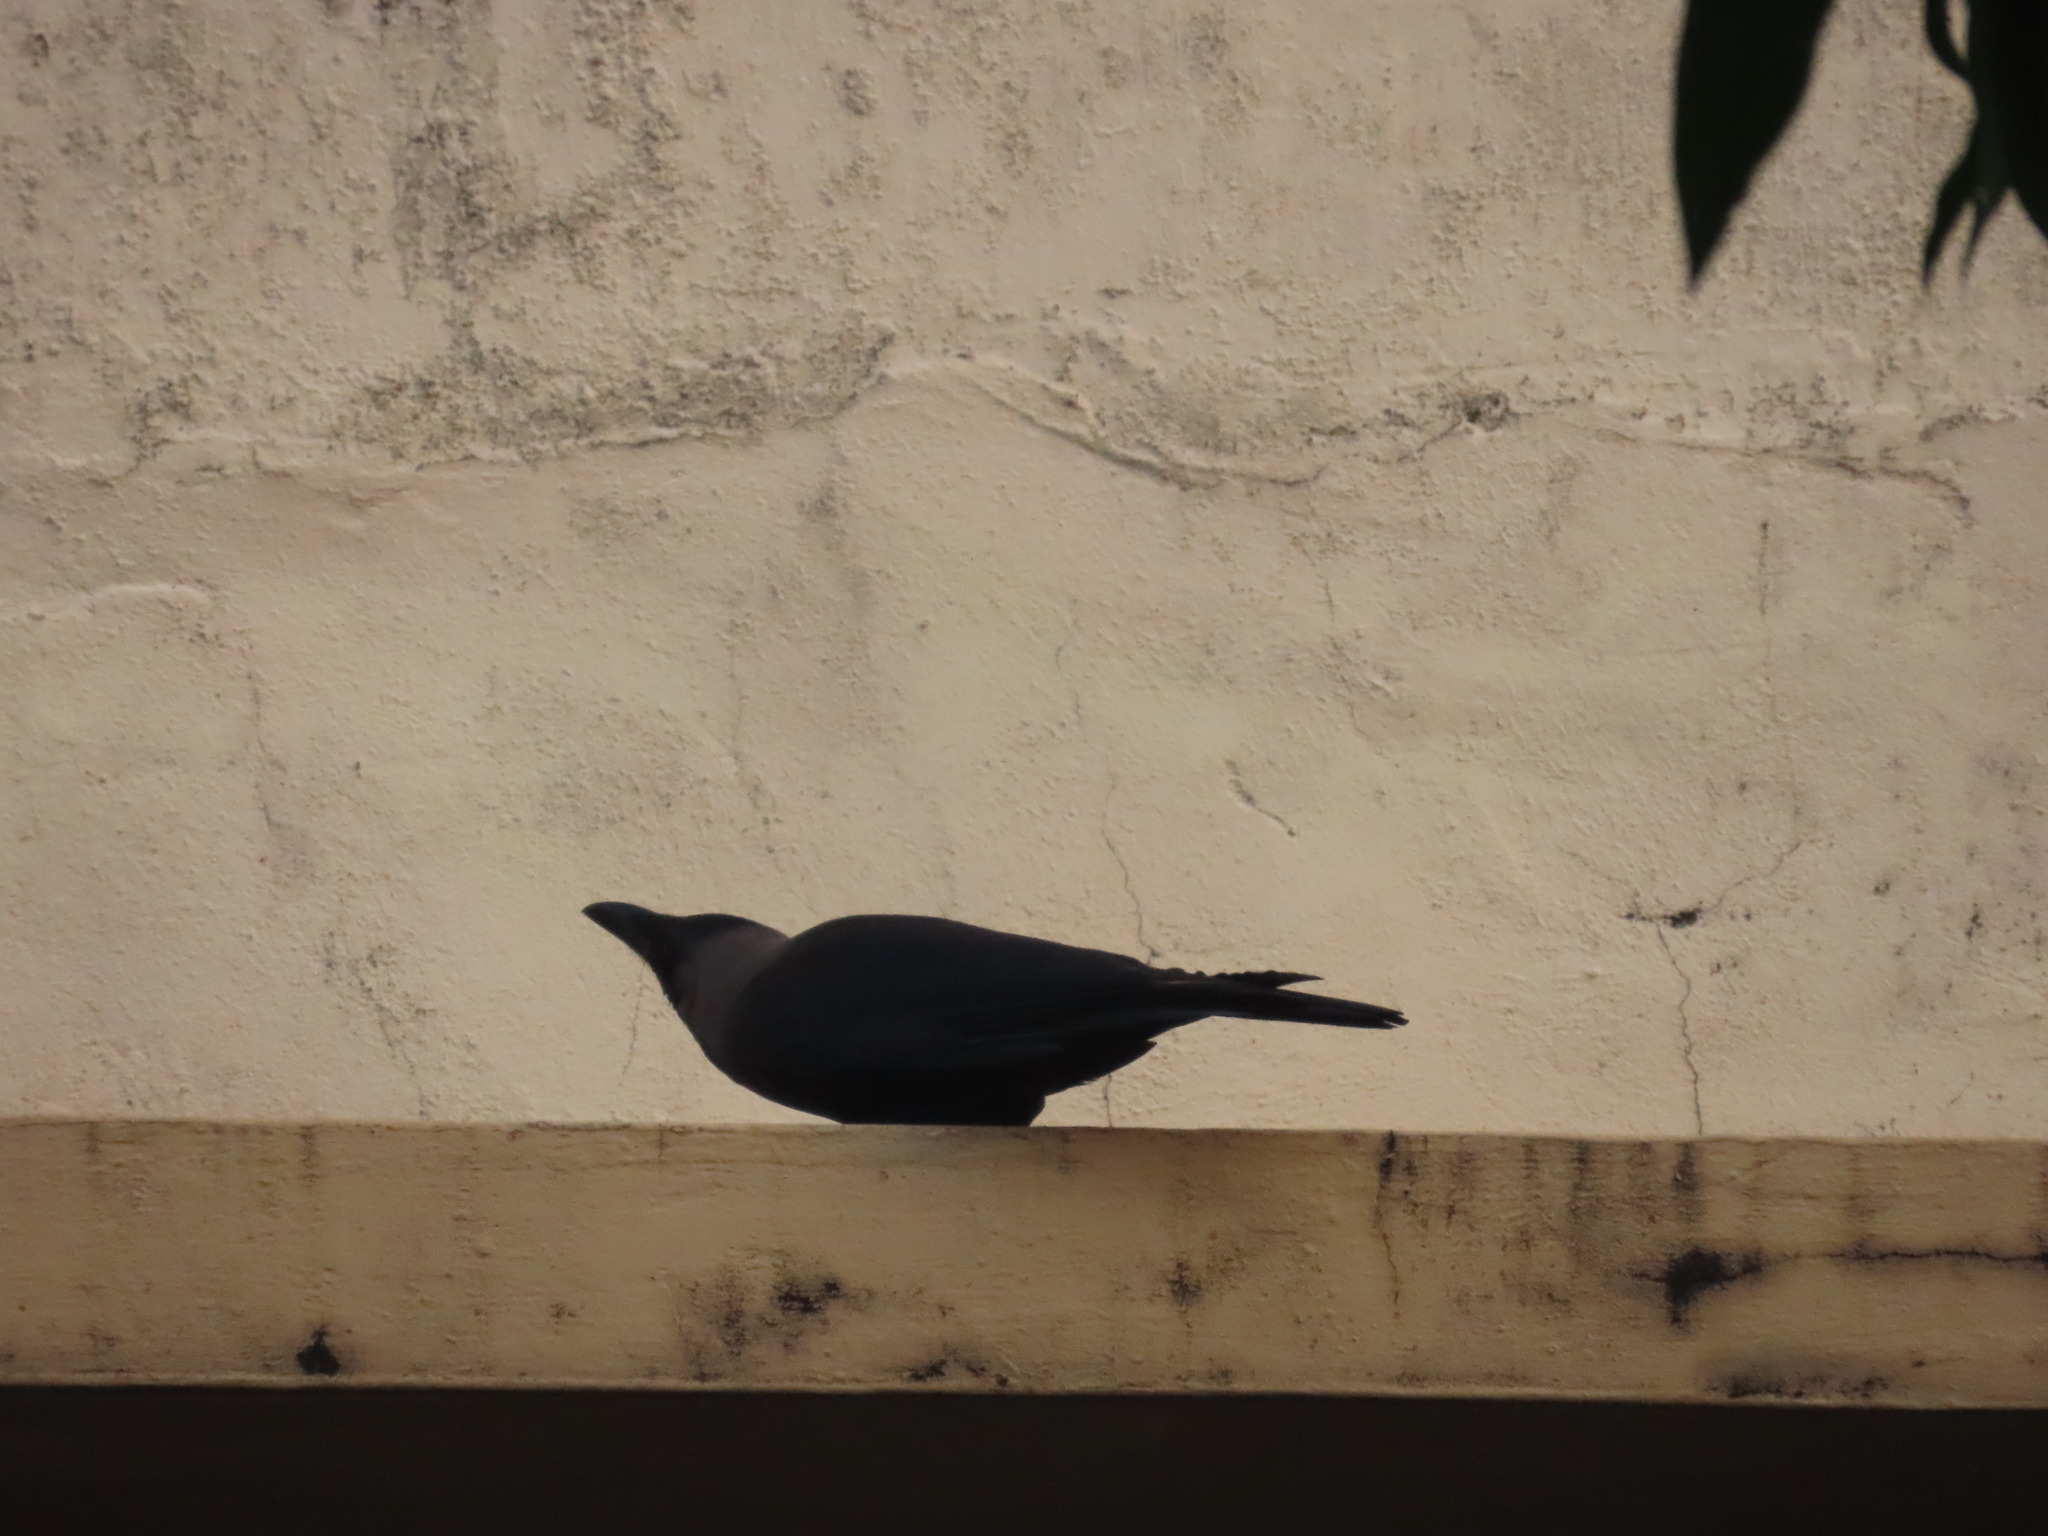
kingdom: Animalia
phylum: Chordata
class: Aves
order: Passeriformes
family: Corvidae
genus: Corvus
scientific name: Corvus splendens
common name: House crow
